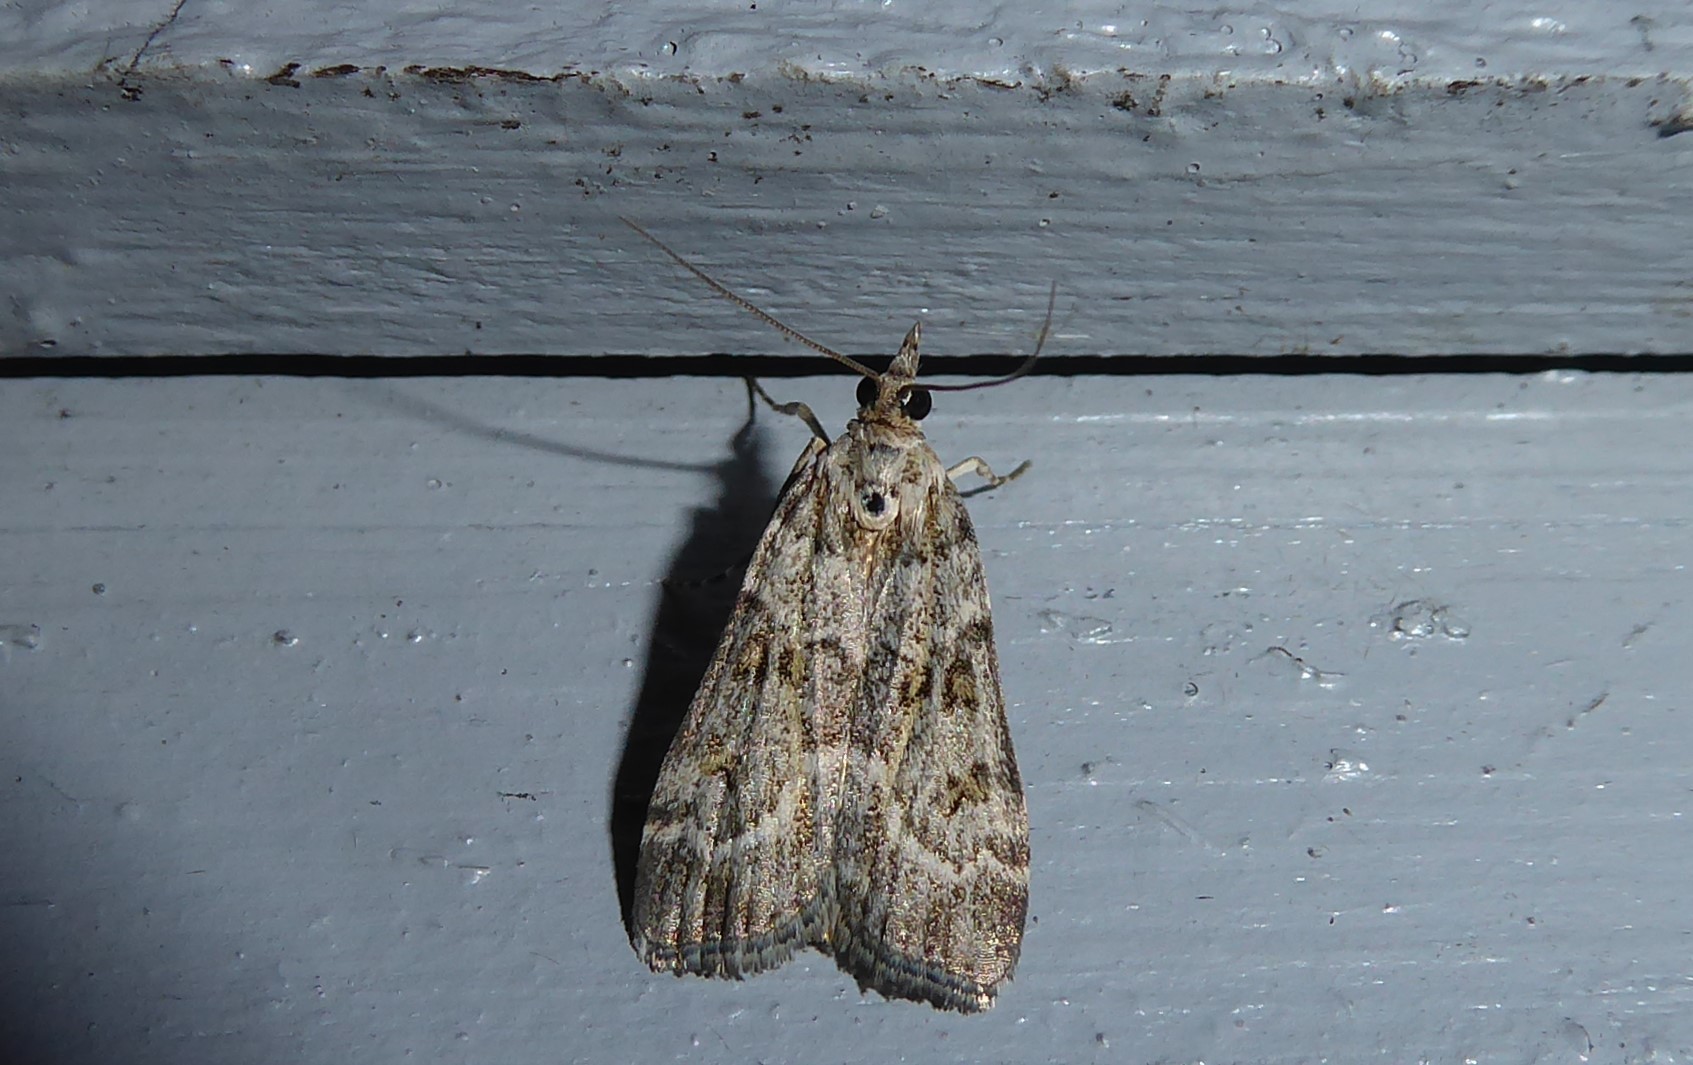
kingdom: Animalia
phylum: Arthropoda
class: Insecta
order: Lepidoptera
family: Crambidae
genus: Eudonia
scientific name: Eudonia diphtheralis
